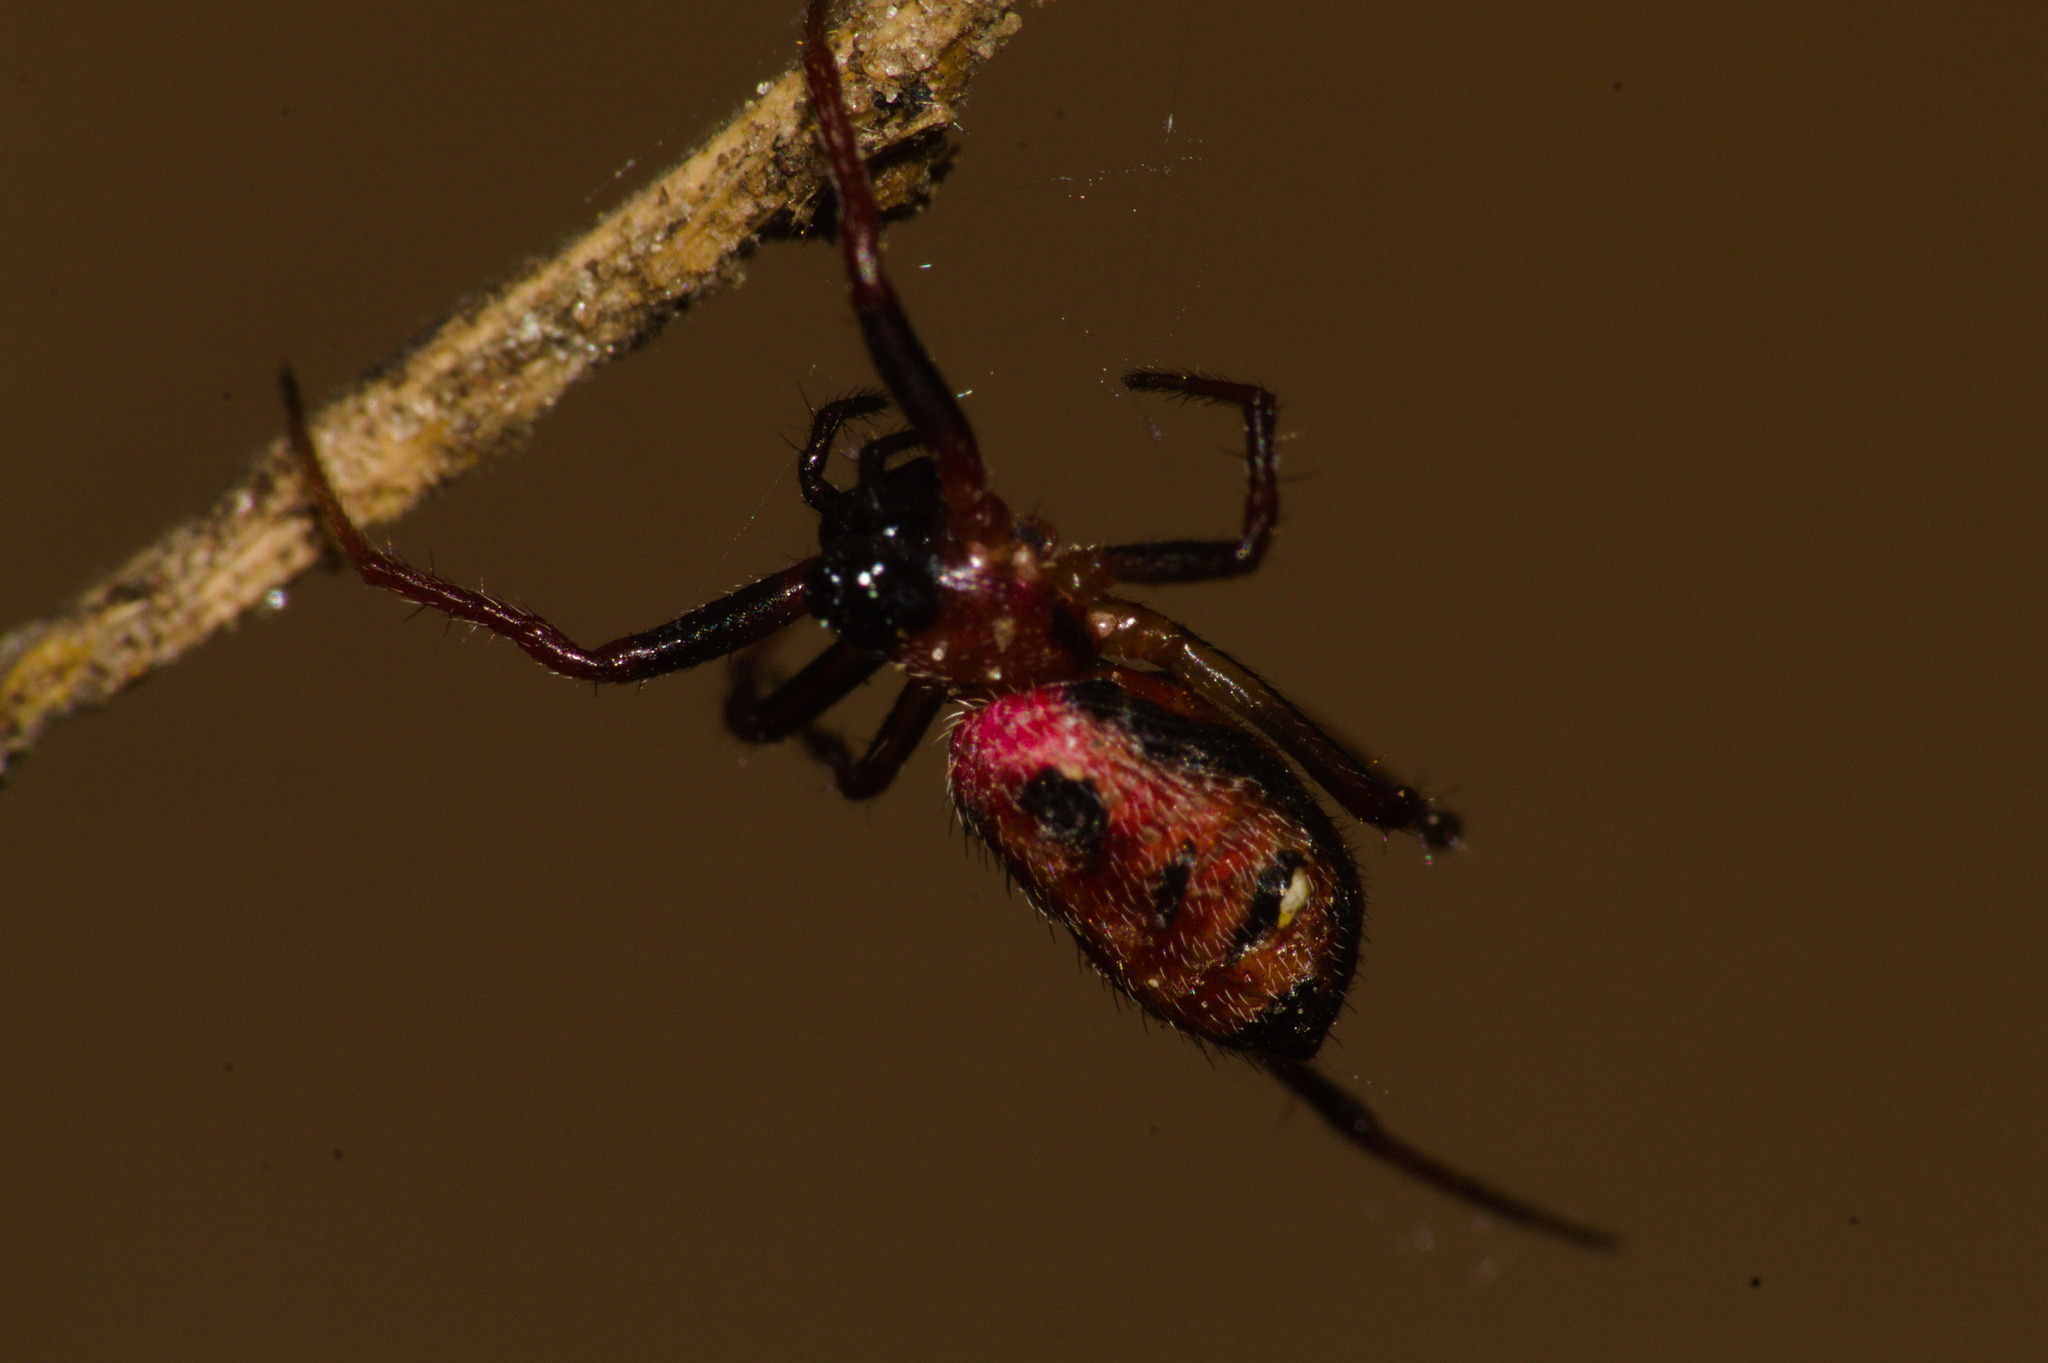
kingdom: Animalia
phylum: Arthropoda
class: Arachnida
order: Araneae
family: Araneidae
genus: Alpaida
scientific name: Alpaida carminea
